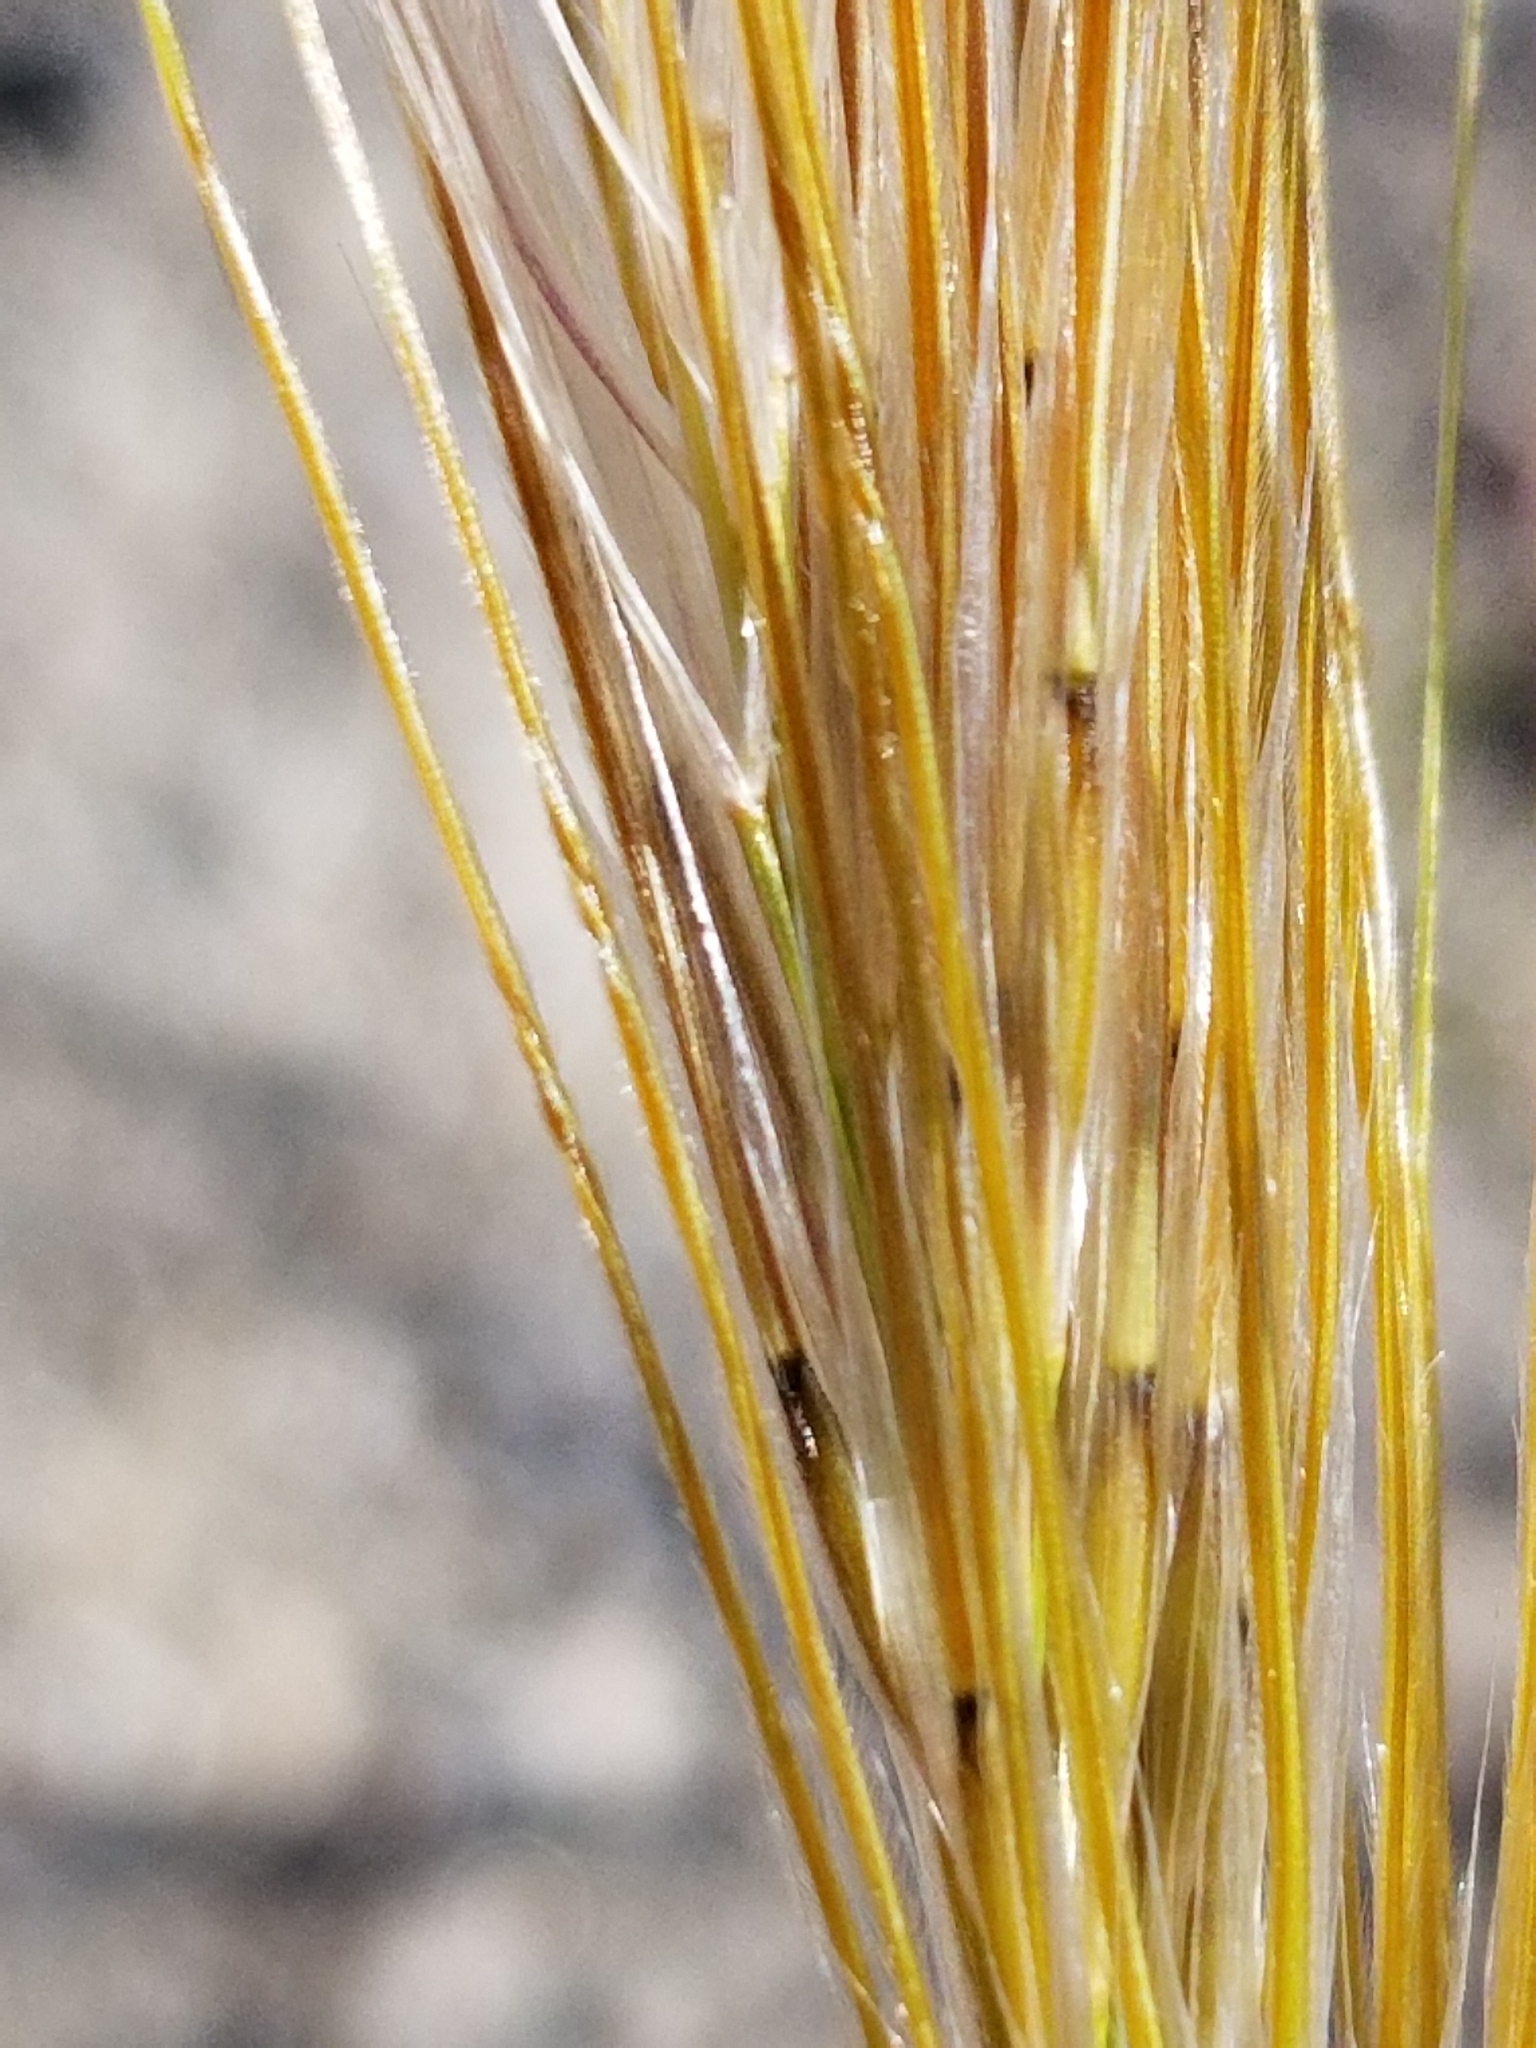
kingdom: Plantae
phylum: Tracheophyta
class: Liliopsida
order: Poales
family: Poaceae
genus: Elymus
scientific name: Elymus elymoides
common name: Bottlebrush squirreltail
